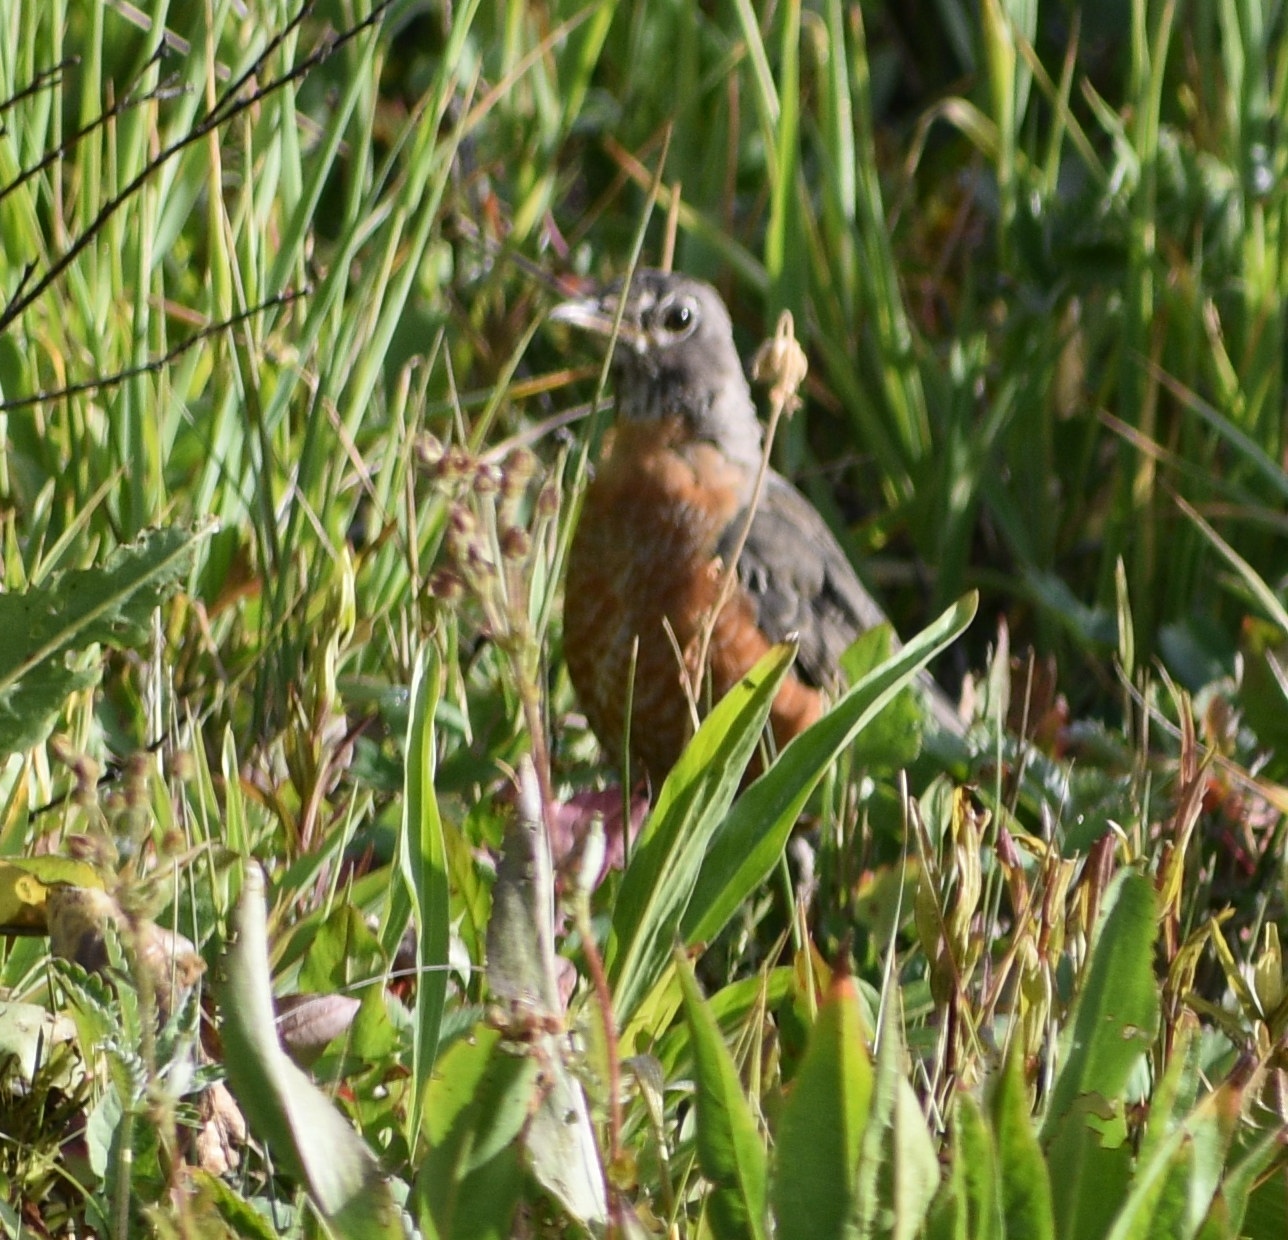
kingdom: Animalia
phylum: Chordata
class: Aves
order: Passeriformes
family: Turdidae
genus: Turdus
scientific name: Turdus migratorius
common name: American robin
